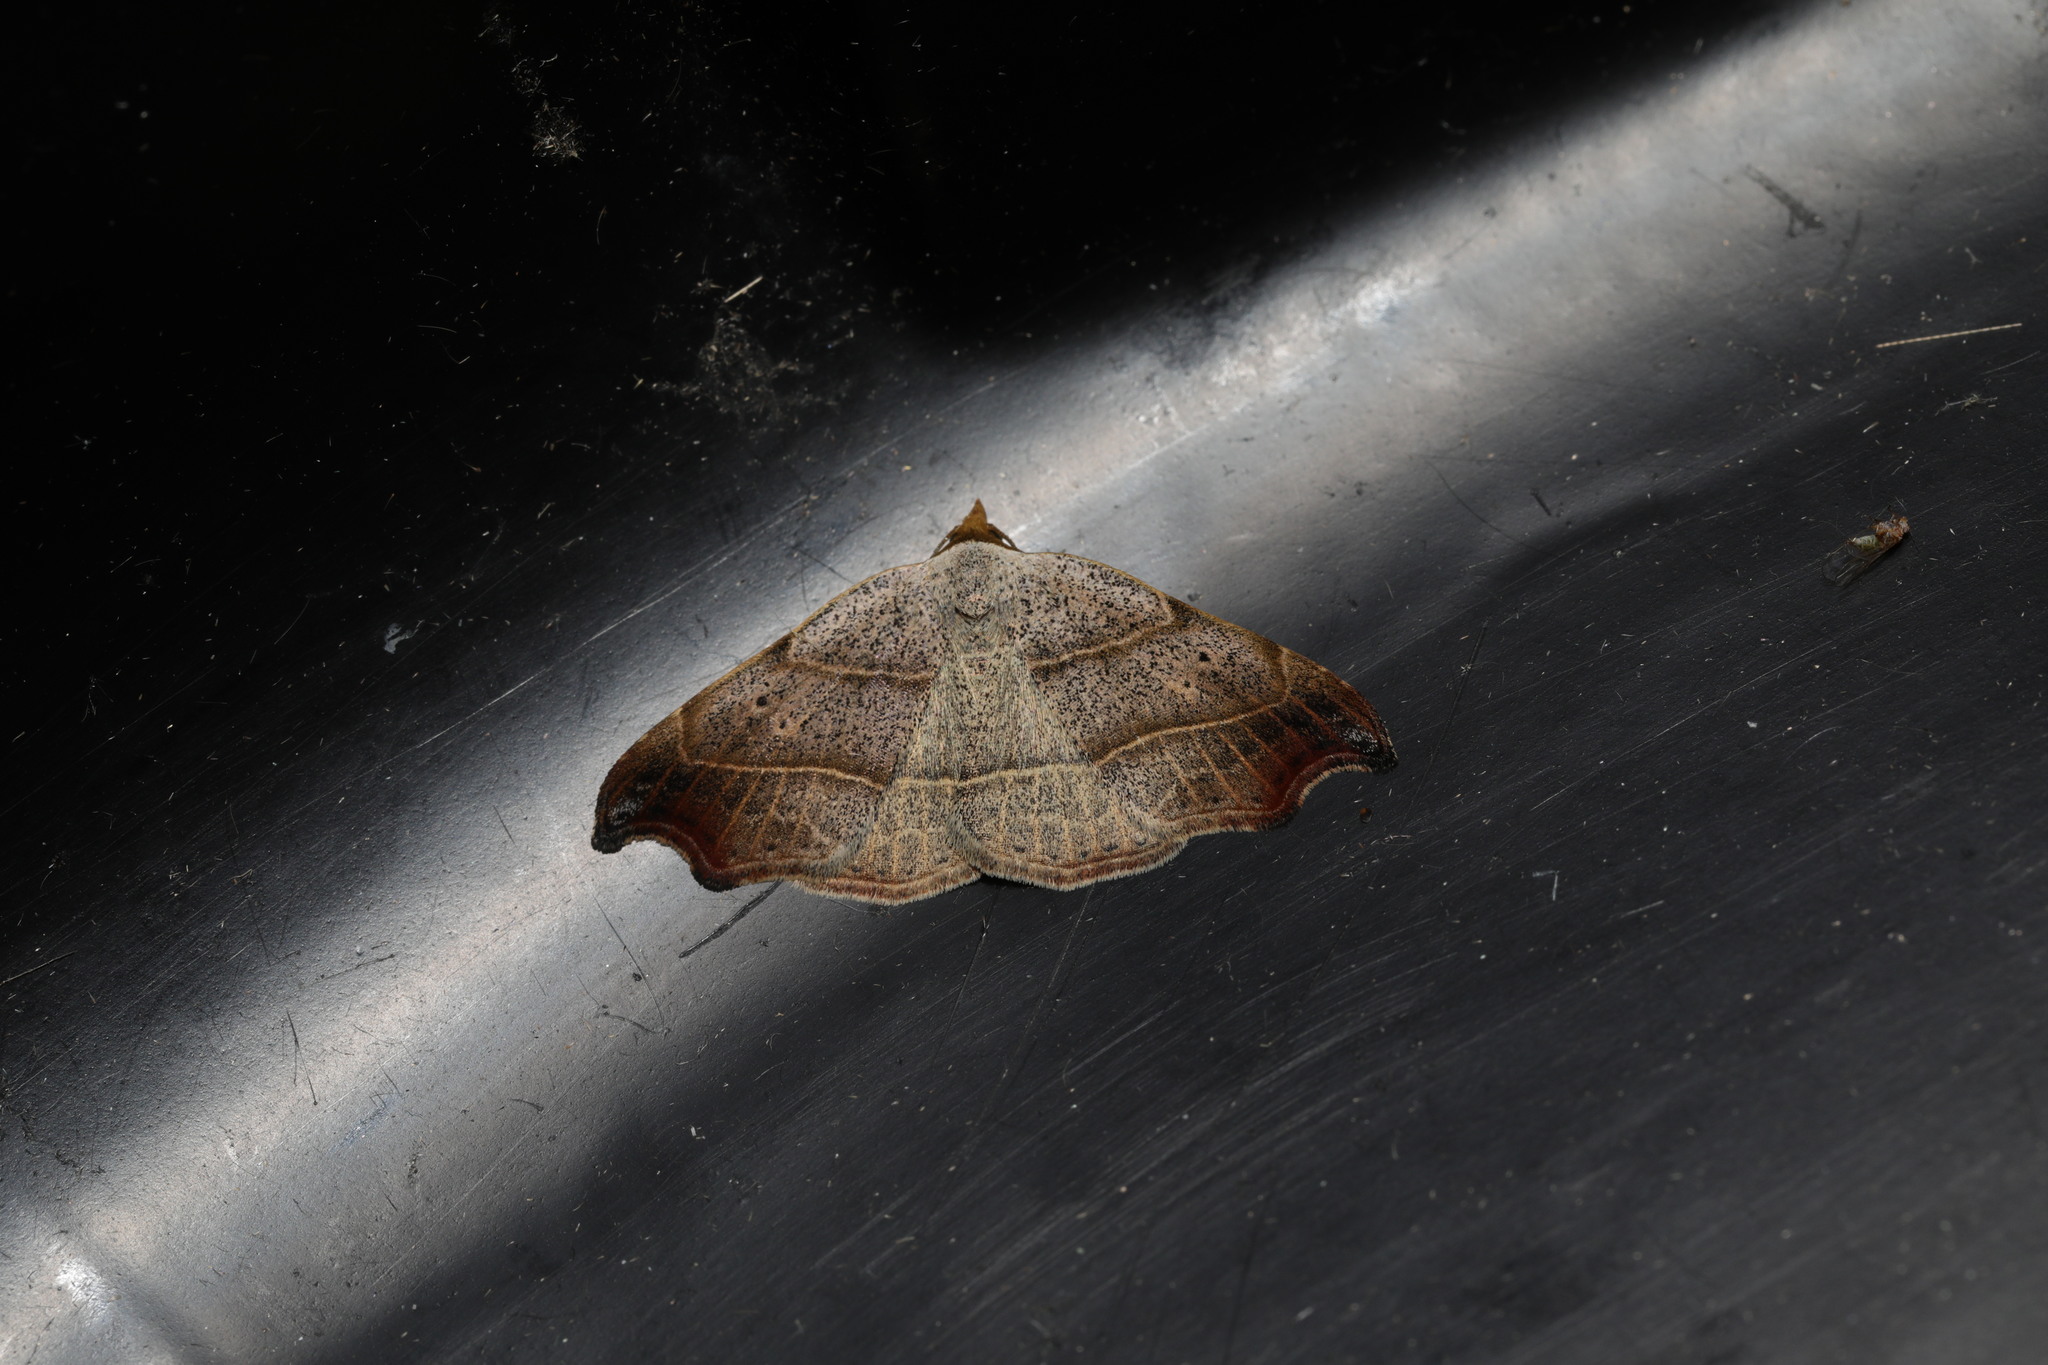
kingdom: Animalia
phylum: Arthropoda
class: Insecta
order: Lepidoptera
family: Erebidae
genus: Laspeyria
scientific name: Laspeyria flexula
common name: Beautiful hook-tip
